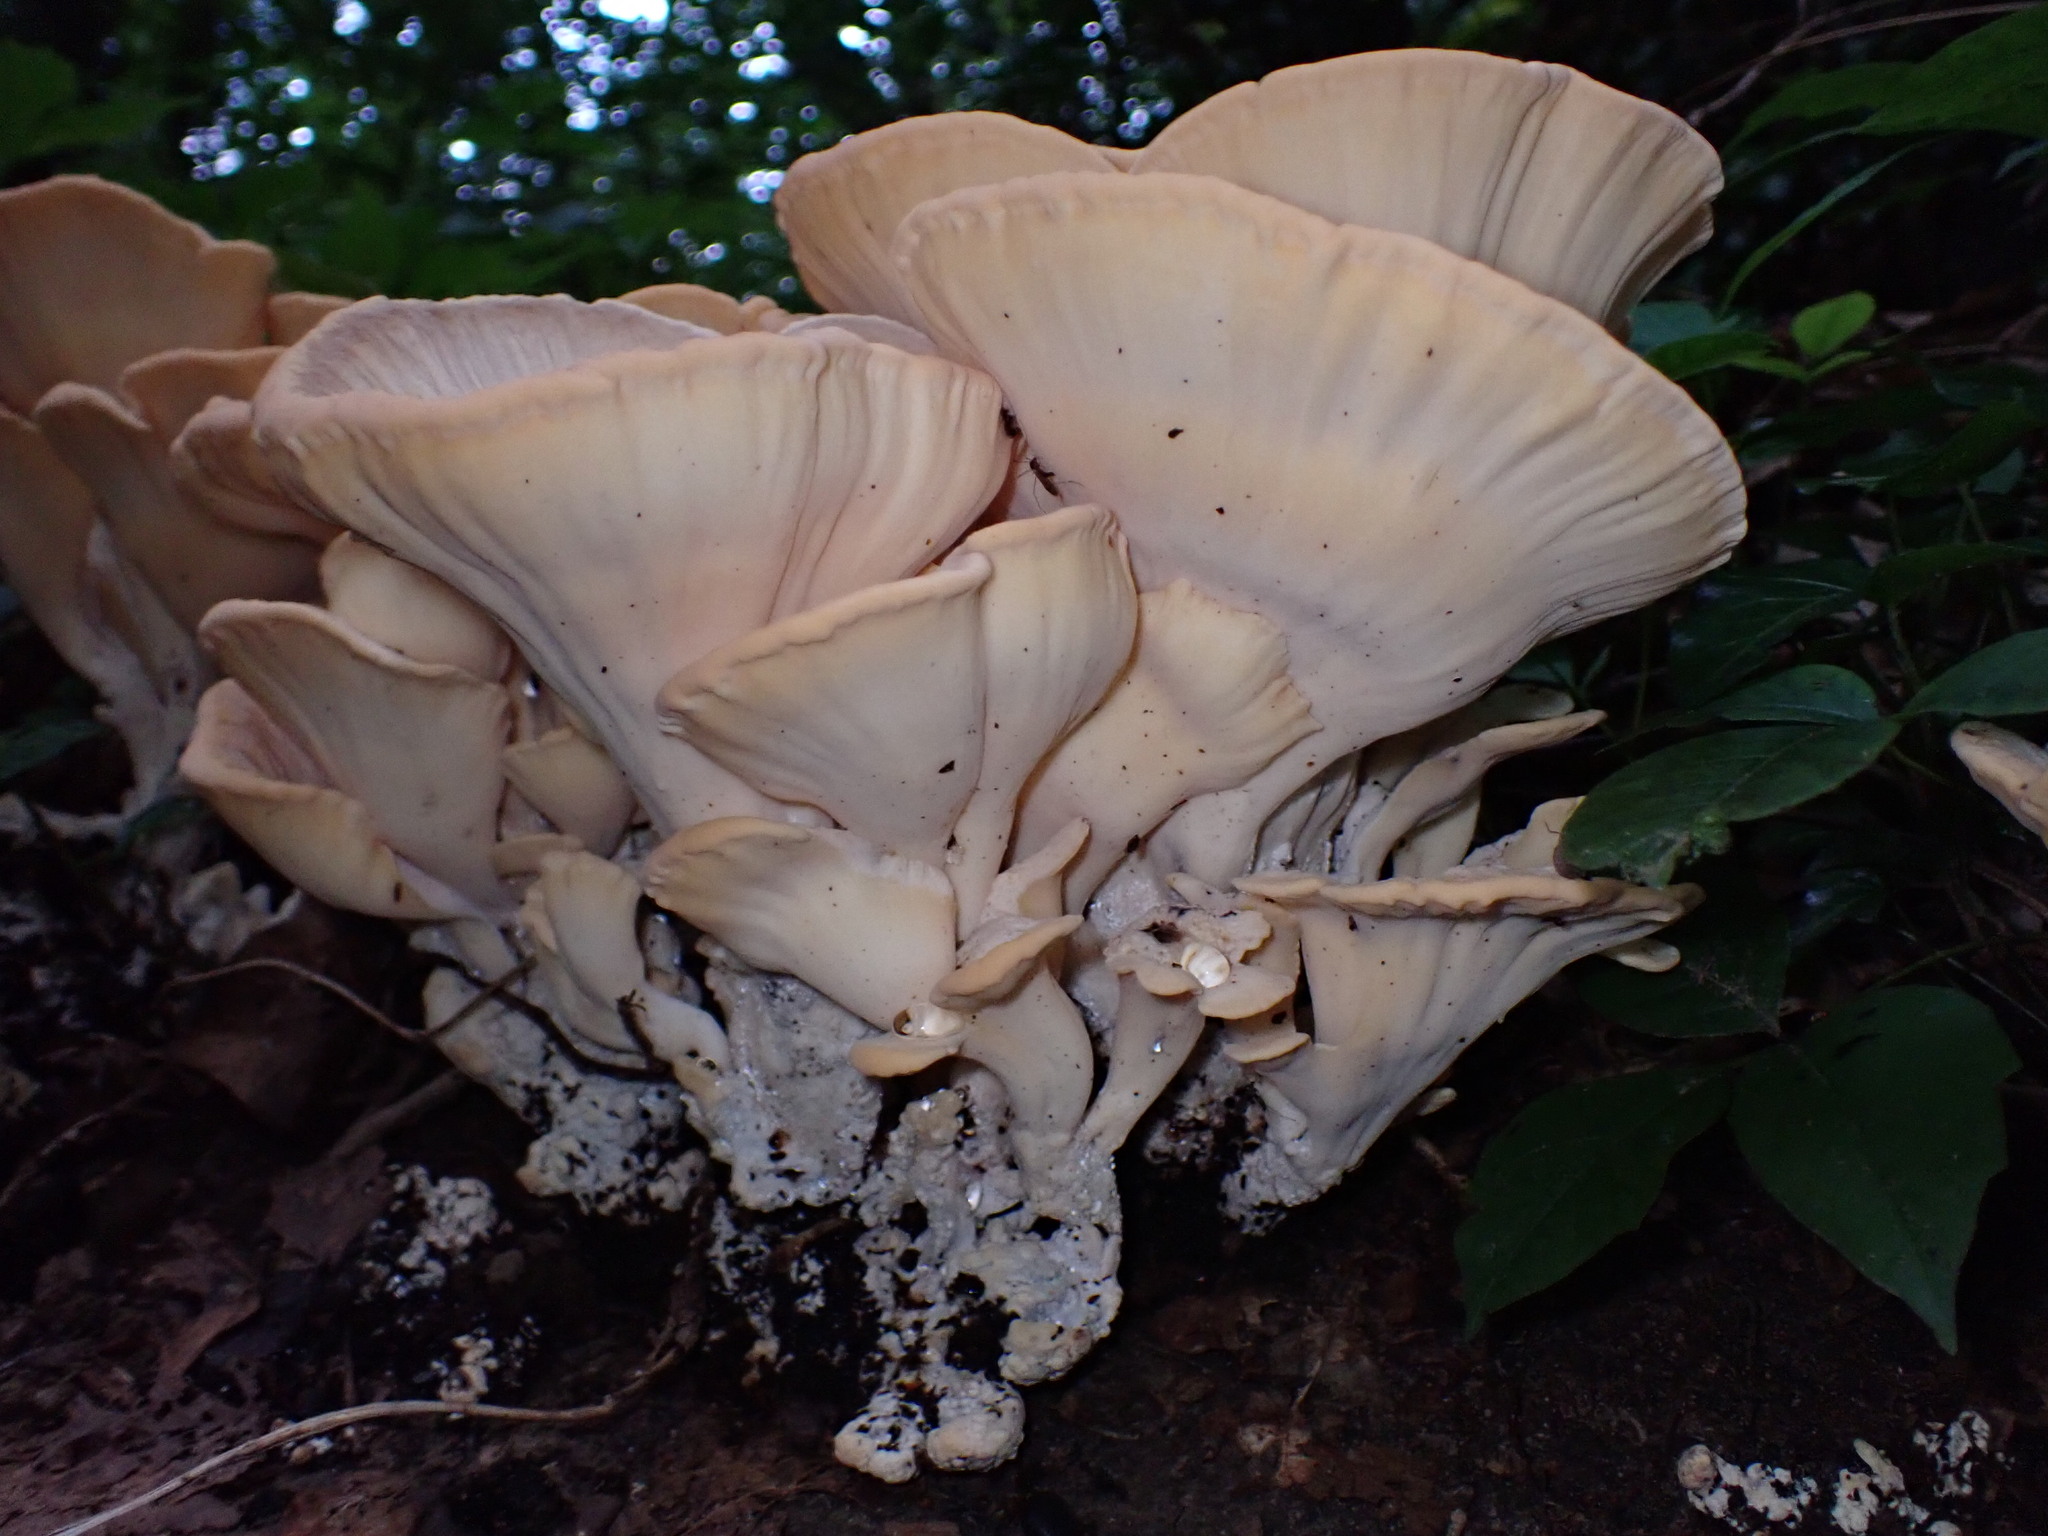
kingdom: Fungi
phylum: Basidiomycota
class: Agaricomycetes
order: Polyporales
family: Meripilaceae
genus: Meripilus
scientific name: Meripilus sumstinei
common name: Black-staining polypore
